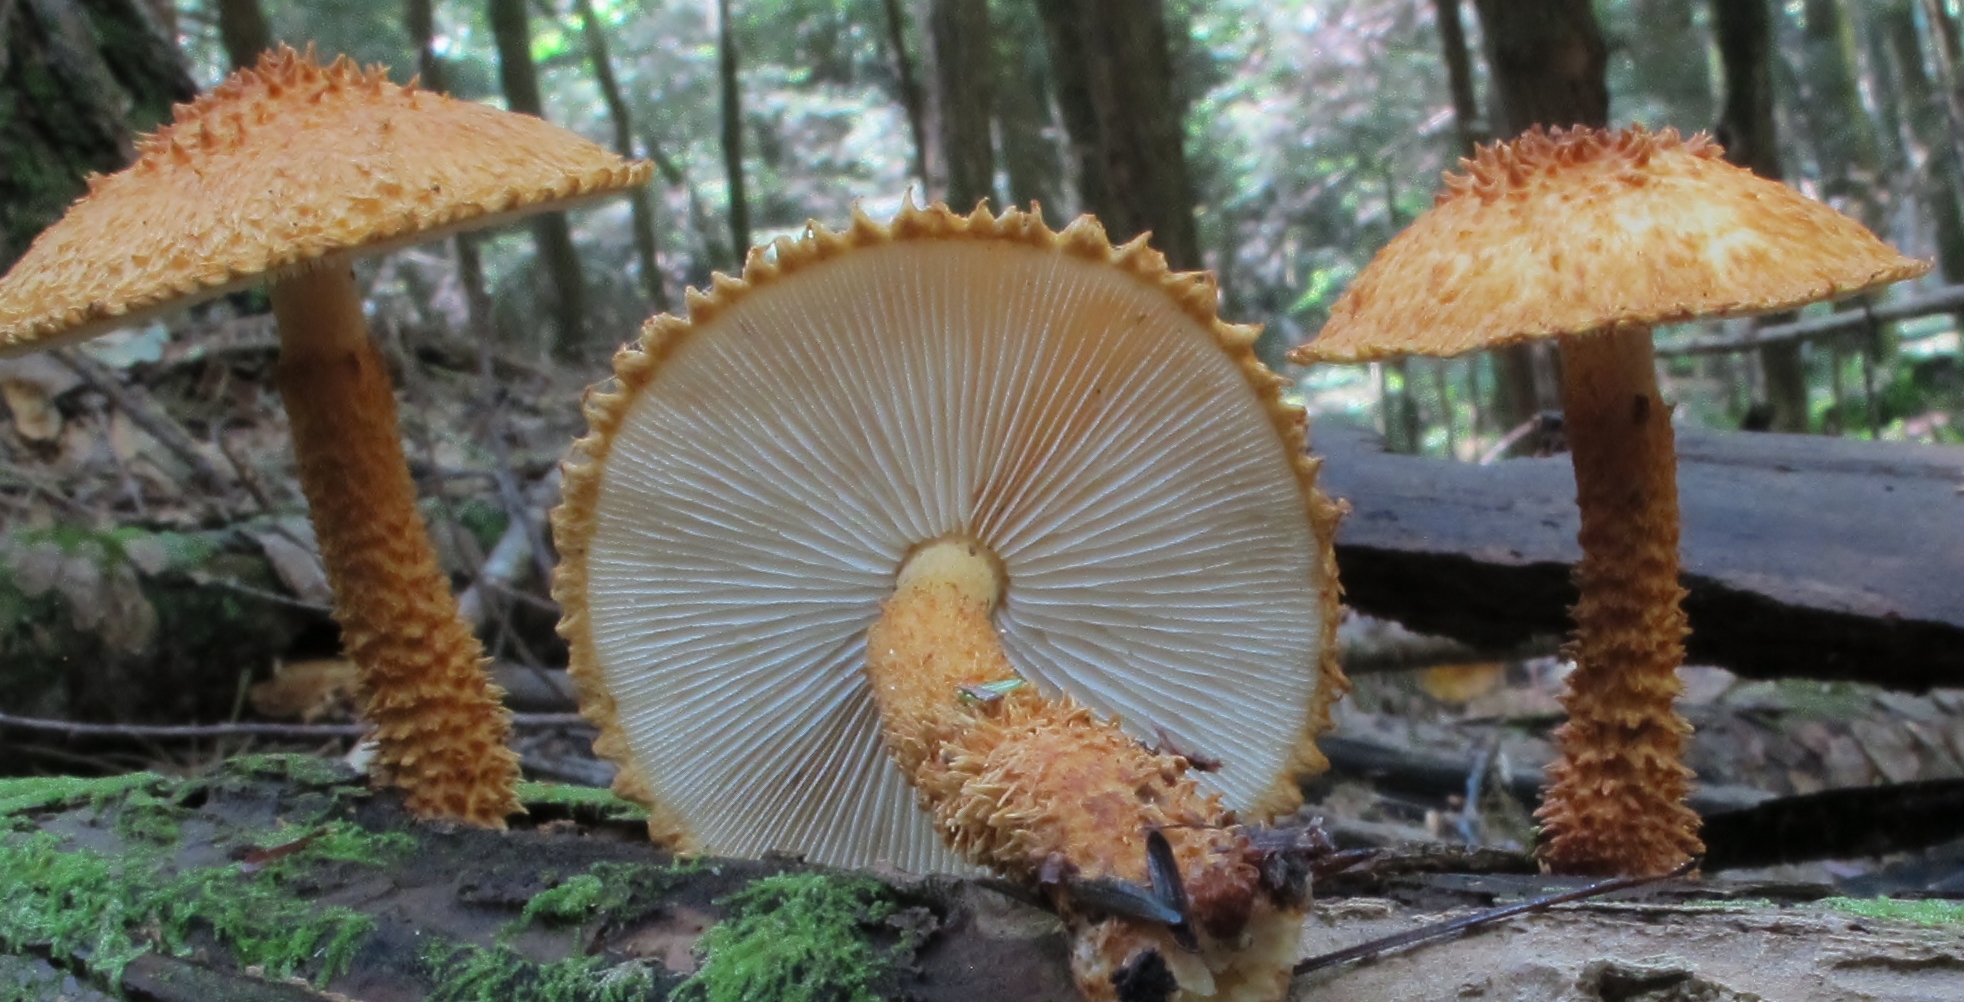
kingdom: Fungi
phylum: Basidiomycota
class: Agaricomycetes
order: Agaricales
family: Agaricaceae
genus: Leucopholiota
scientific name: Leucopholiota decorosa
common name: Decorated pholiota
